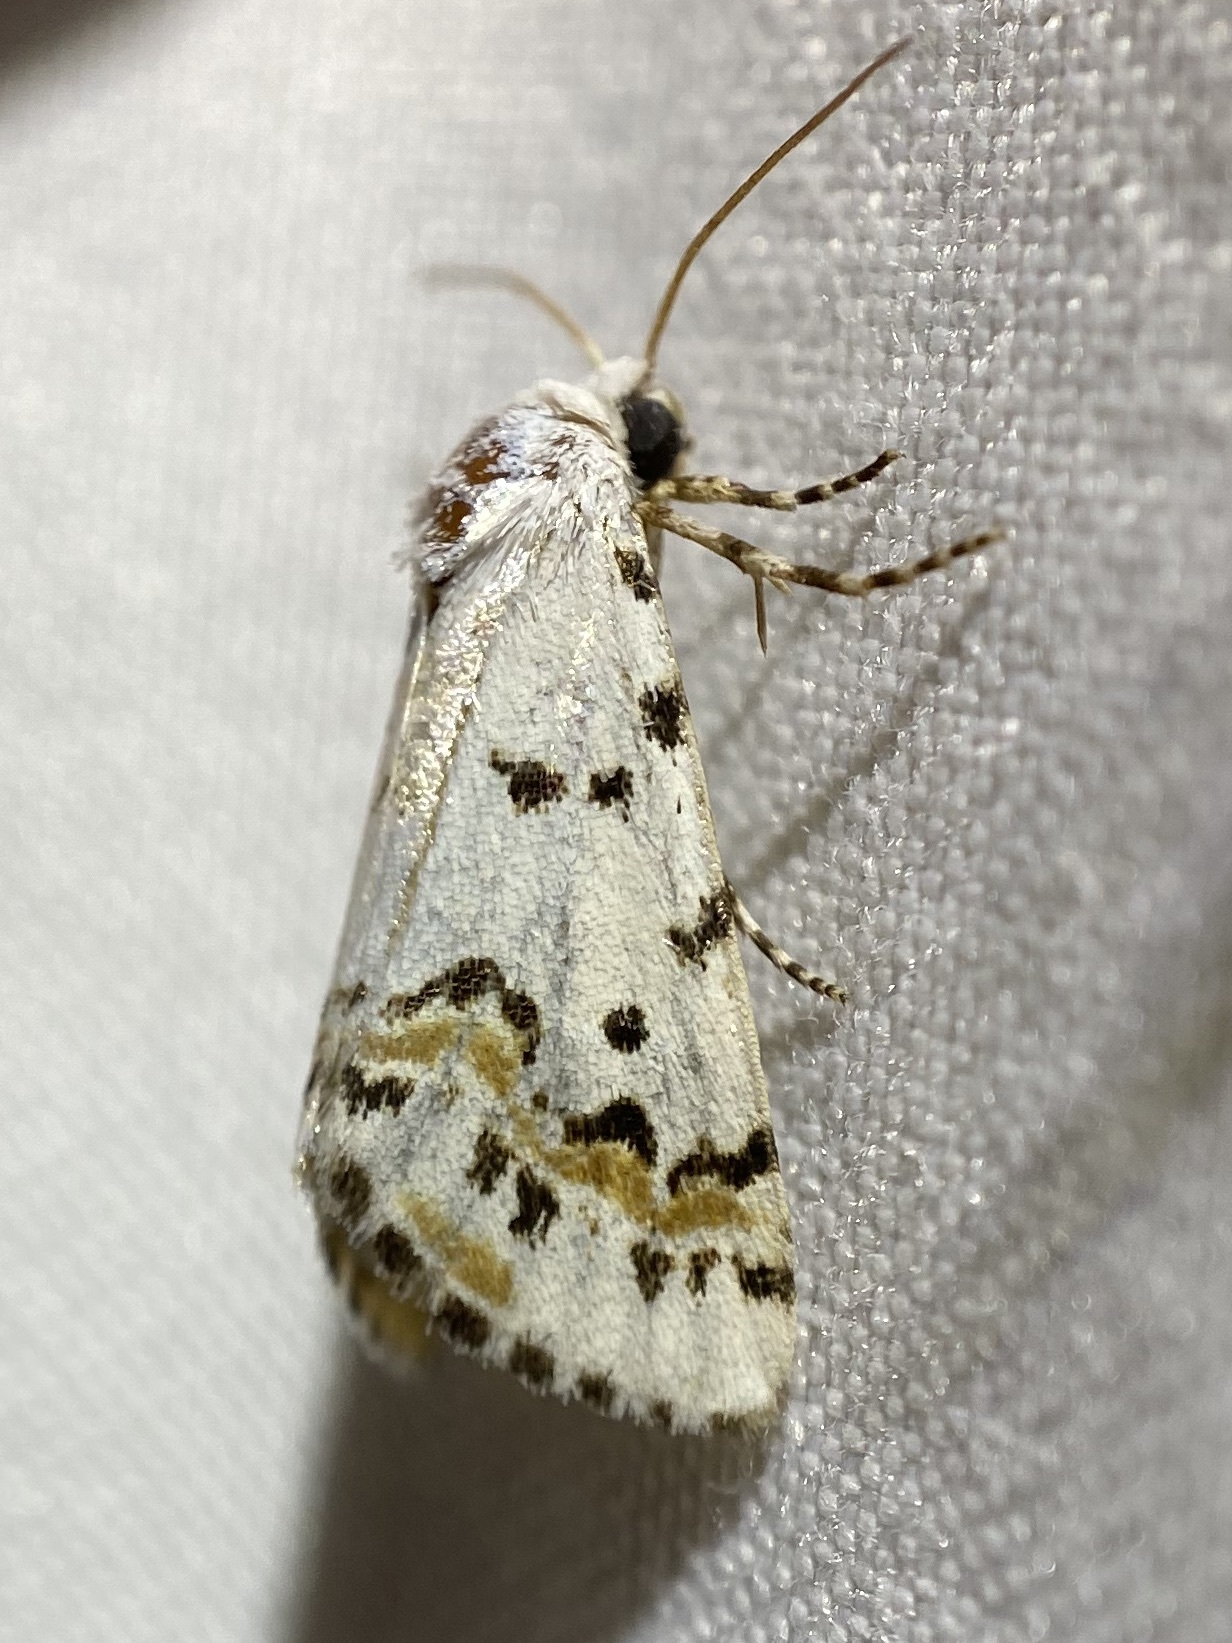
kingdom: Animalia
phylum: Arthropoda
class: Insecta
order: Lepidoptera
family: Noctuidae
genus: Grotella
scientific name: Grotella tricolor
